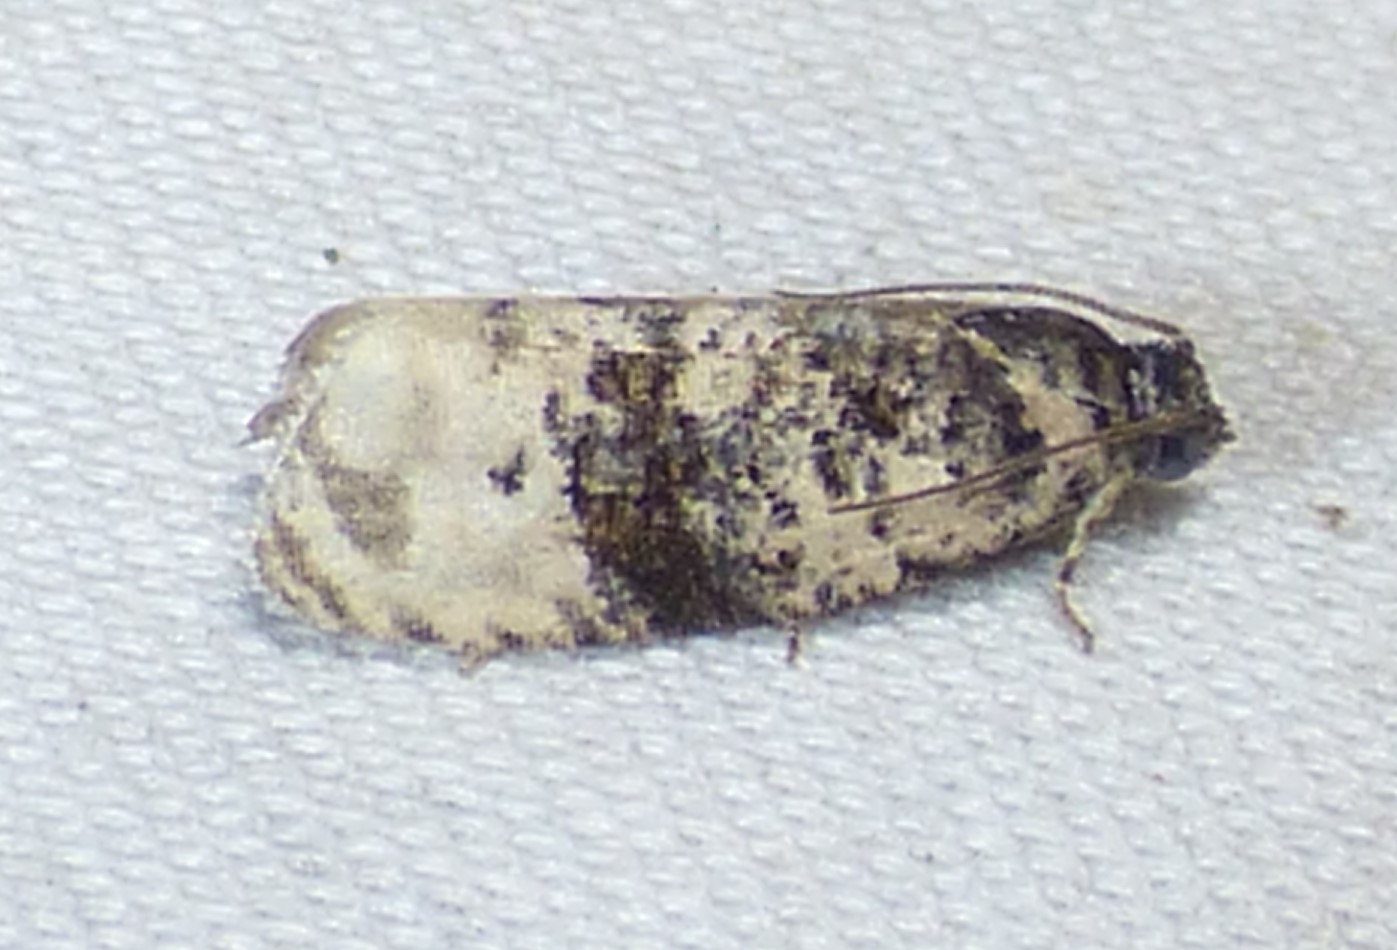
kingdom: Animalia
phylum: Arthropoda
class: Insecta
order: Lepidoptera
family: Tortricidae
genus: Hedya
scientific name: Hedya separatana
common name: Pink-washed leafroller moth
